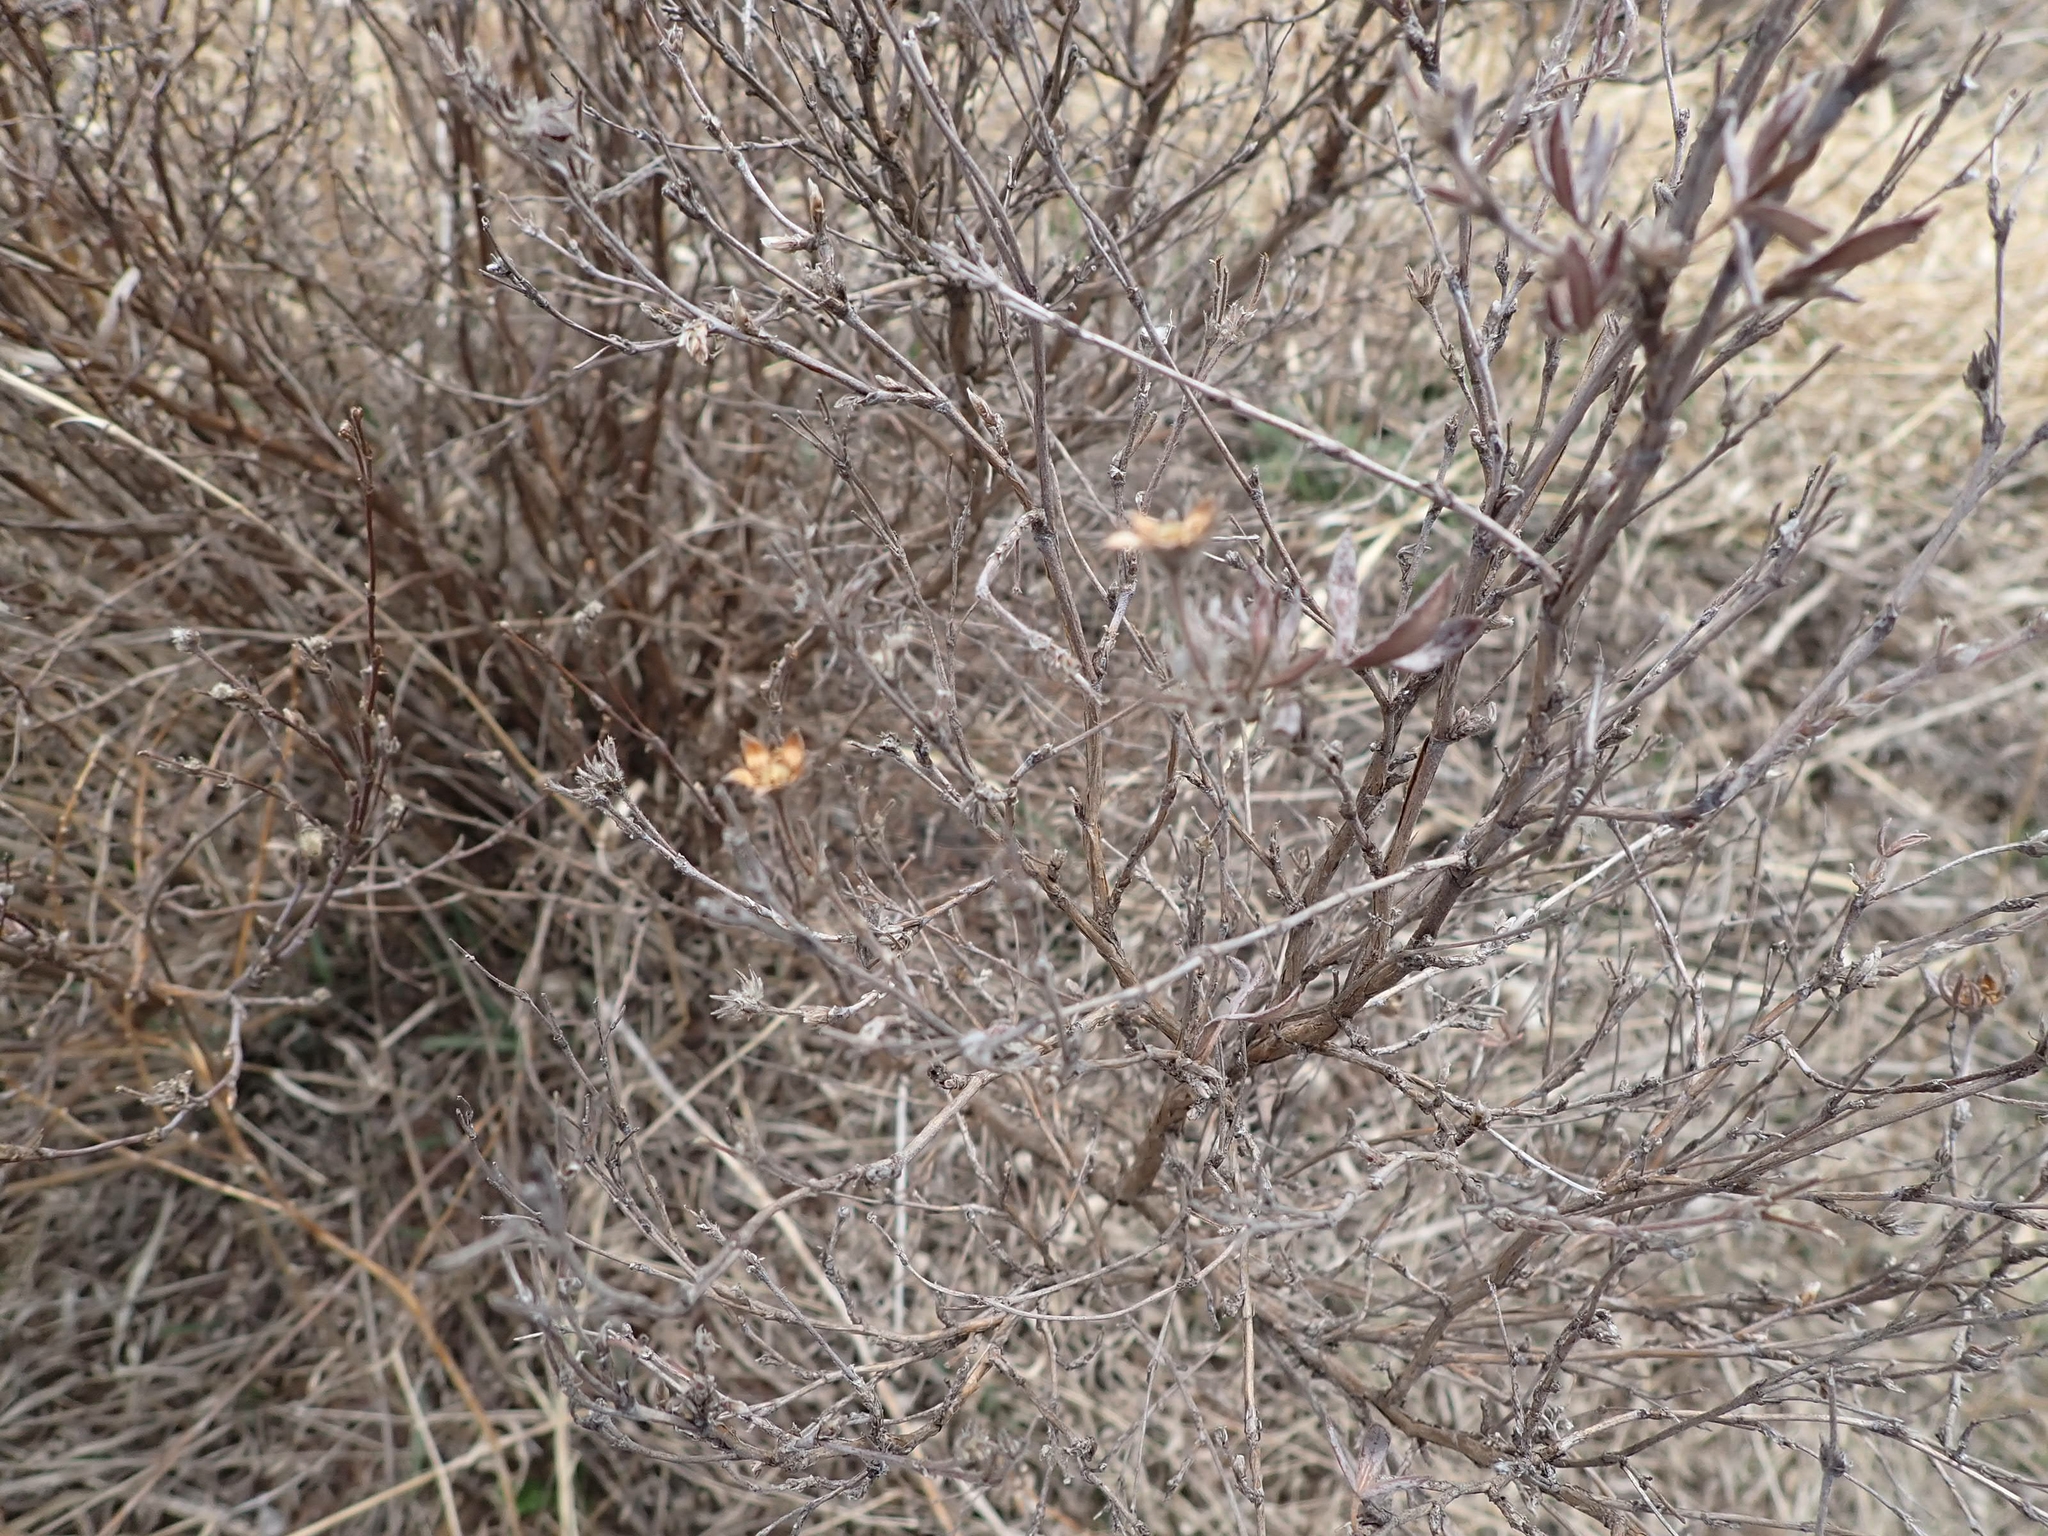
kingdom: Plantae
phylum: Tracheophyta
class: Magnoliopsida
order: Rosales
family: Rosaceae
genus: Dasiphora
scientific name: Dasiphora fruticosa
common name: Shrubby cinquefoil
